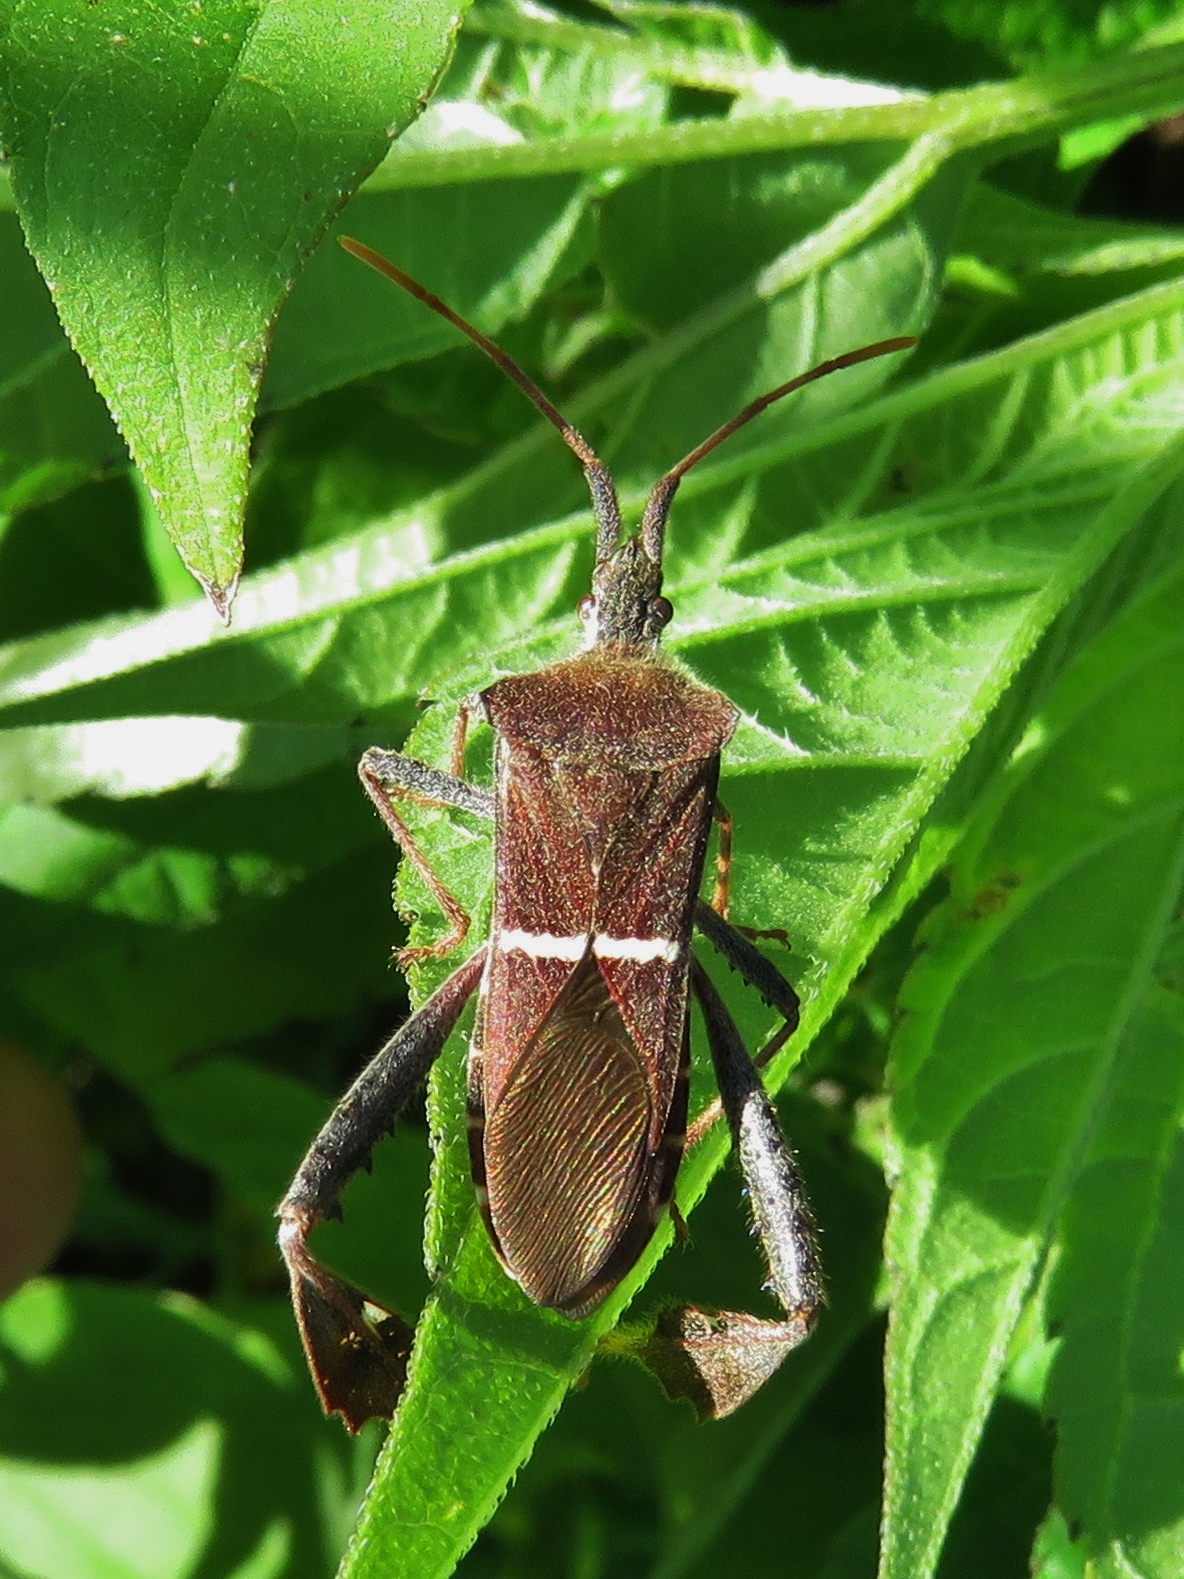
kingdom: Animalia
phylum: Arthropoda
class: Insecta
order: Hemiptera
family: Coreidae
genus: Leptoglossus
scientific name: Leptoglossus phyllopus
